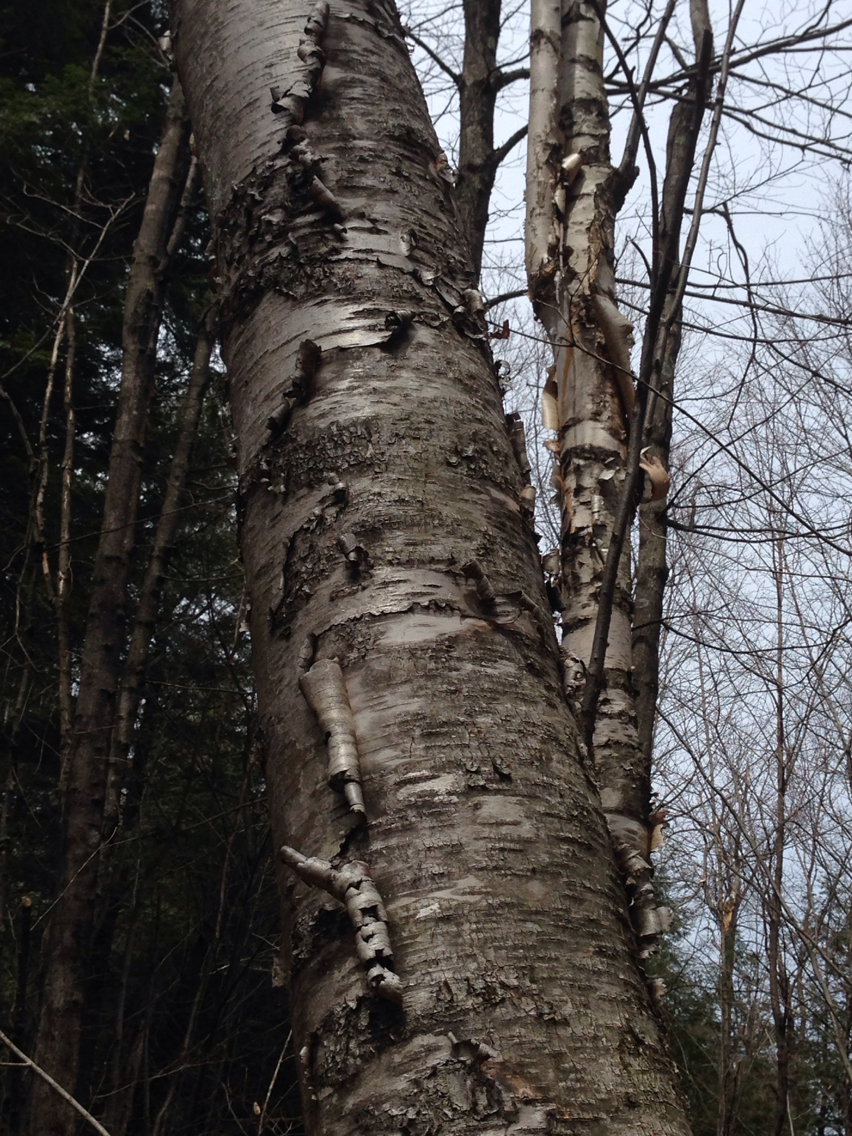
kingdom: Plantae
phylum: Tracheophyta
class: Magnoliopsida
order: Fagales
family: Betulaceae
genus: Betula
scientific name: Betula papyrifera
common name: Paper birch
